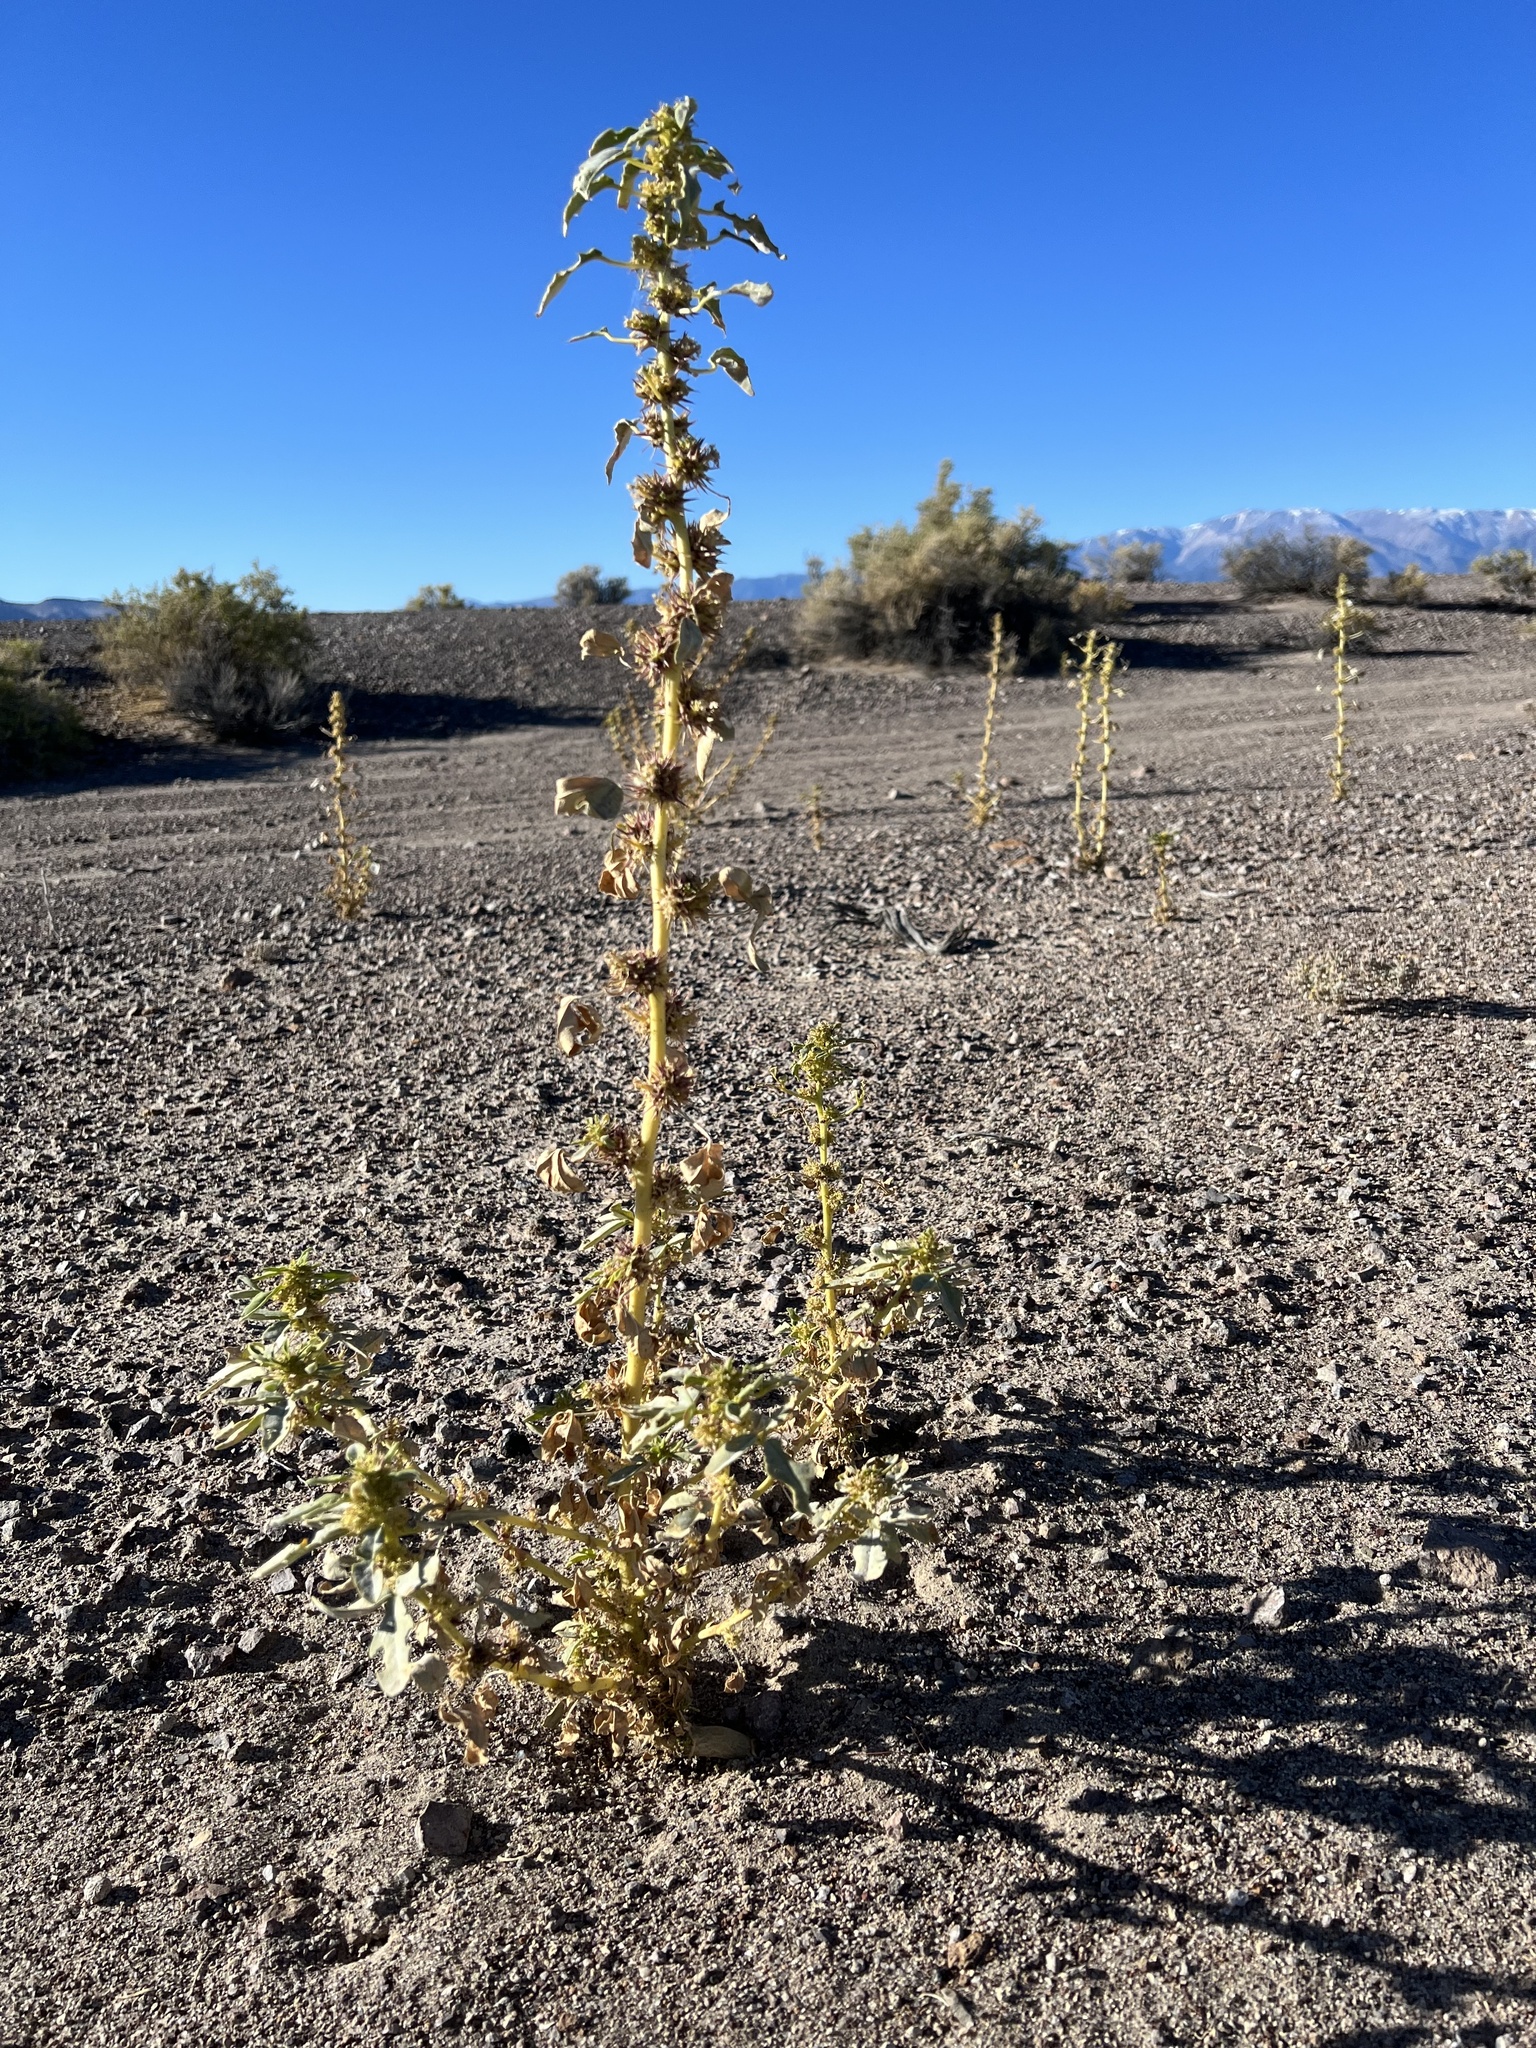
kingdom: Plantae
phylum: Tracheophyta
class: Magnoliopsida
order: Brassicales
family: Cleomaceae
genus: Cleomella
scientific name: Cleomella oxystyloides
